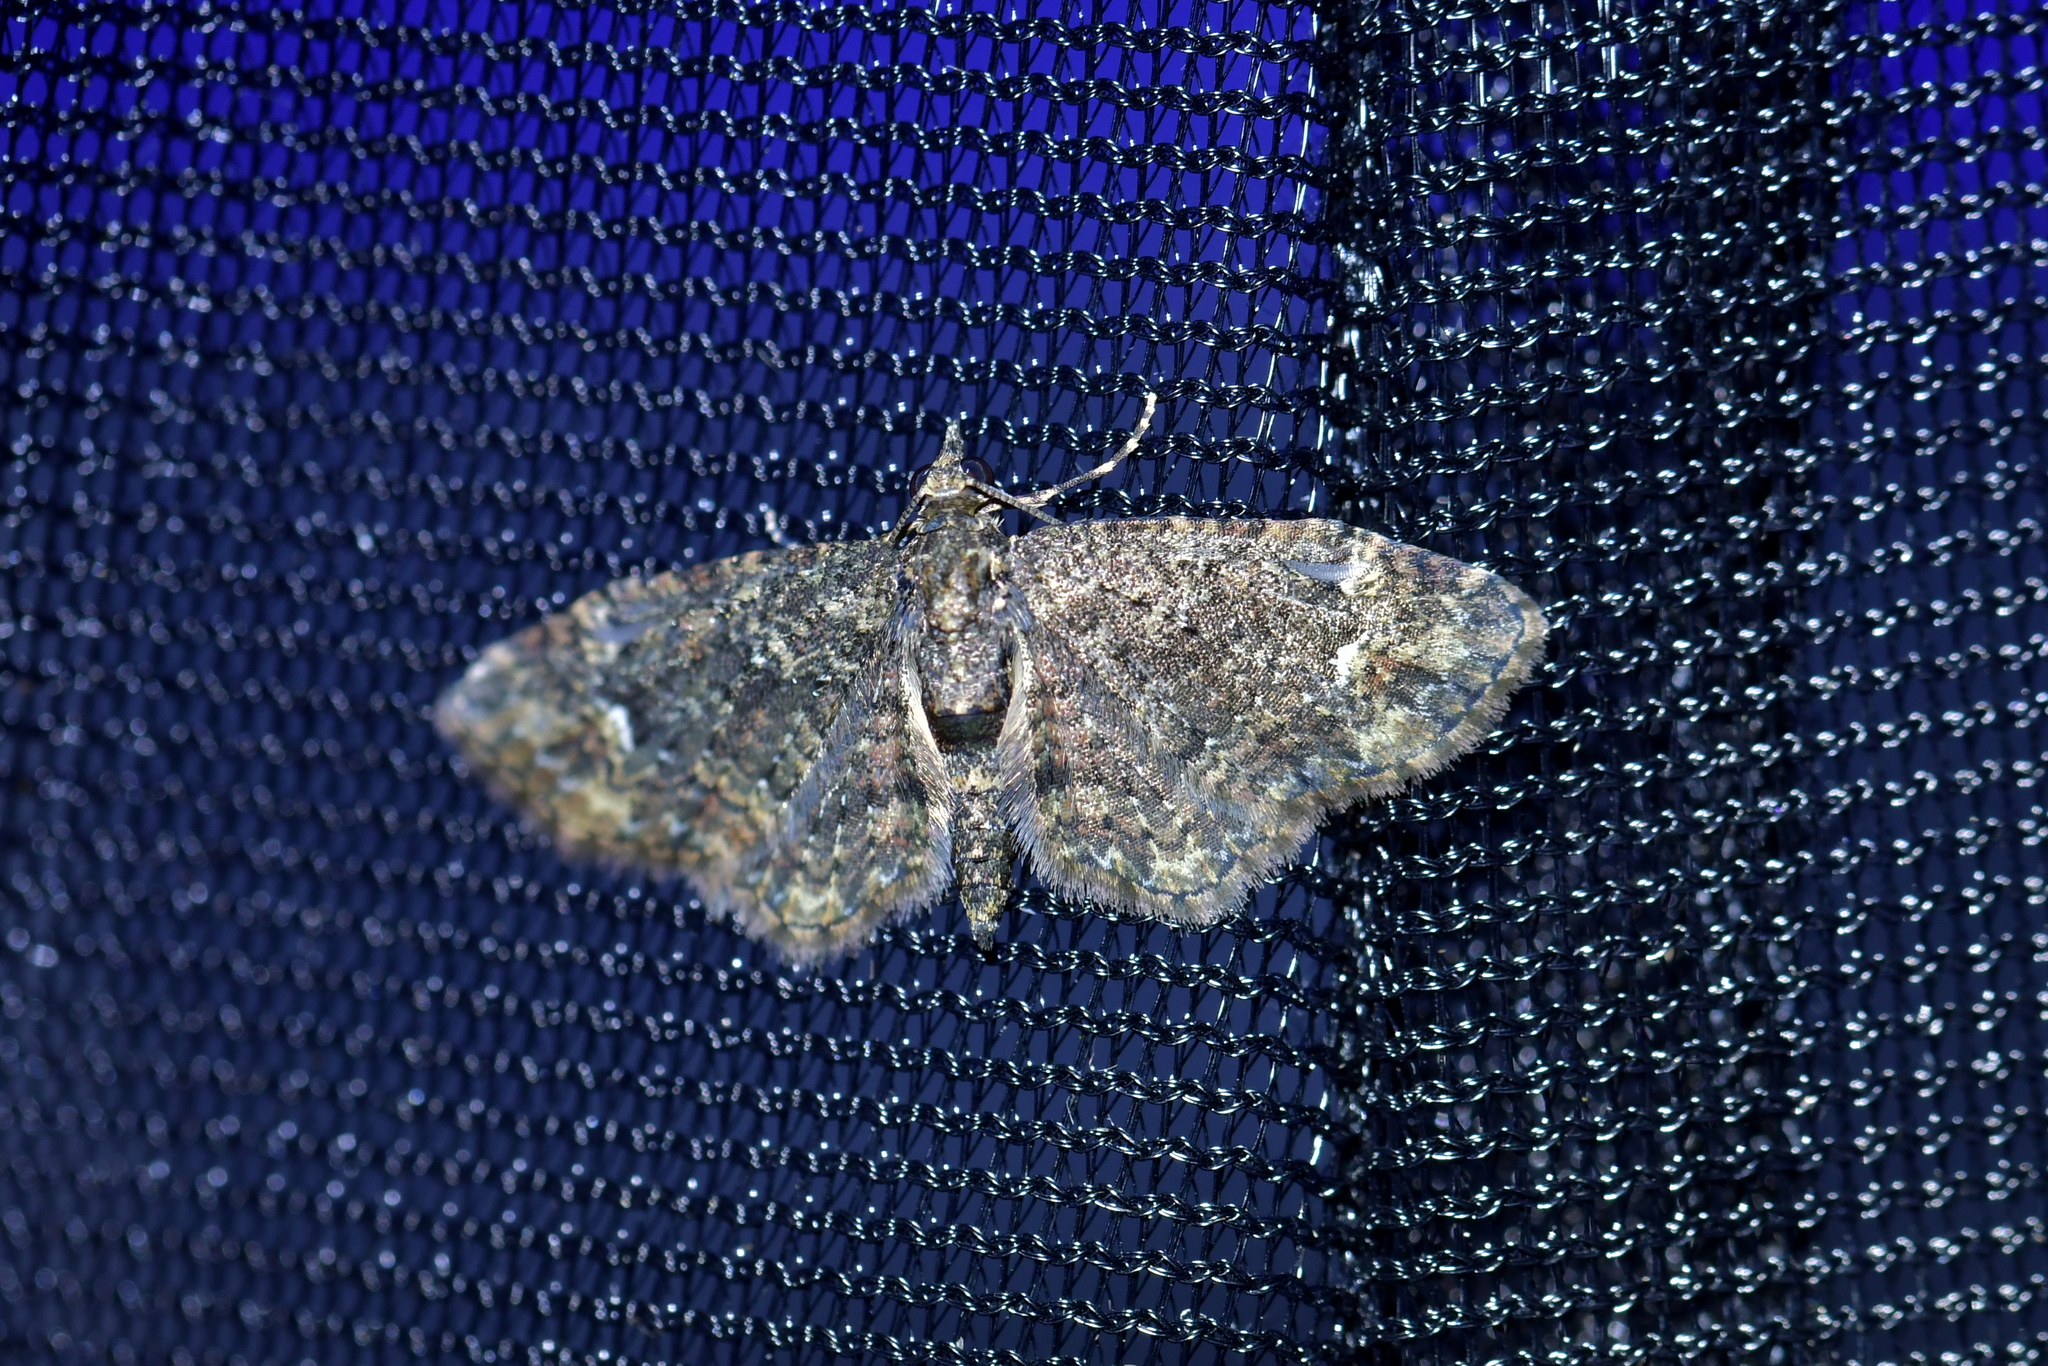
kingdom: Animalia
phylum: Arthropoda
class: Insecta
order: Lepidoptera
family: Geometridae
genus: Pasiphilodes
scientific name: Pasiphilodes testulata
